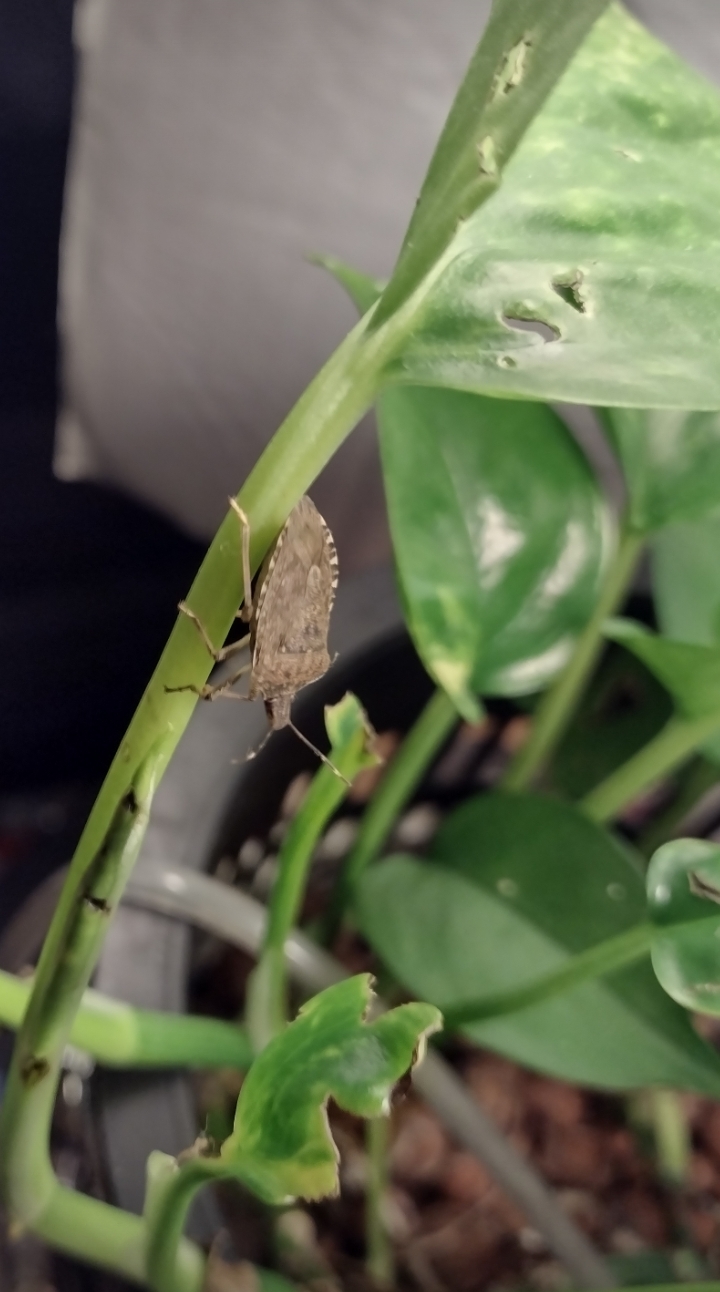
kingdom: Animalia
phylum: Arthropoda
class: Insecta
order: Hemiptera
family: Pentatomidae
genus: Halyomorpha
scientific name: Halyomorpha halys
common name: Brown marmorated stink bug
